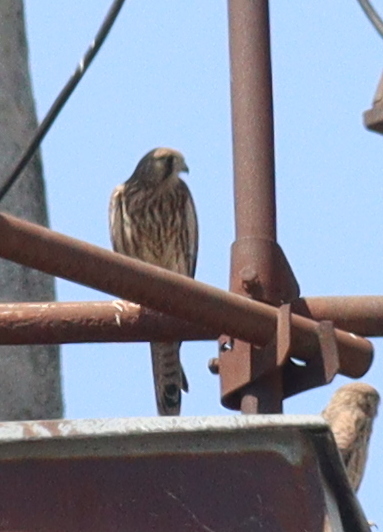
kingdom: Animalia
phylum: Chordata
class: Aves
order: Falconiformes
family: Falconidae
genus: Falco
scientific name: Falco tinnunculus
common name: Common kestrel
